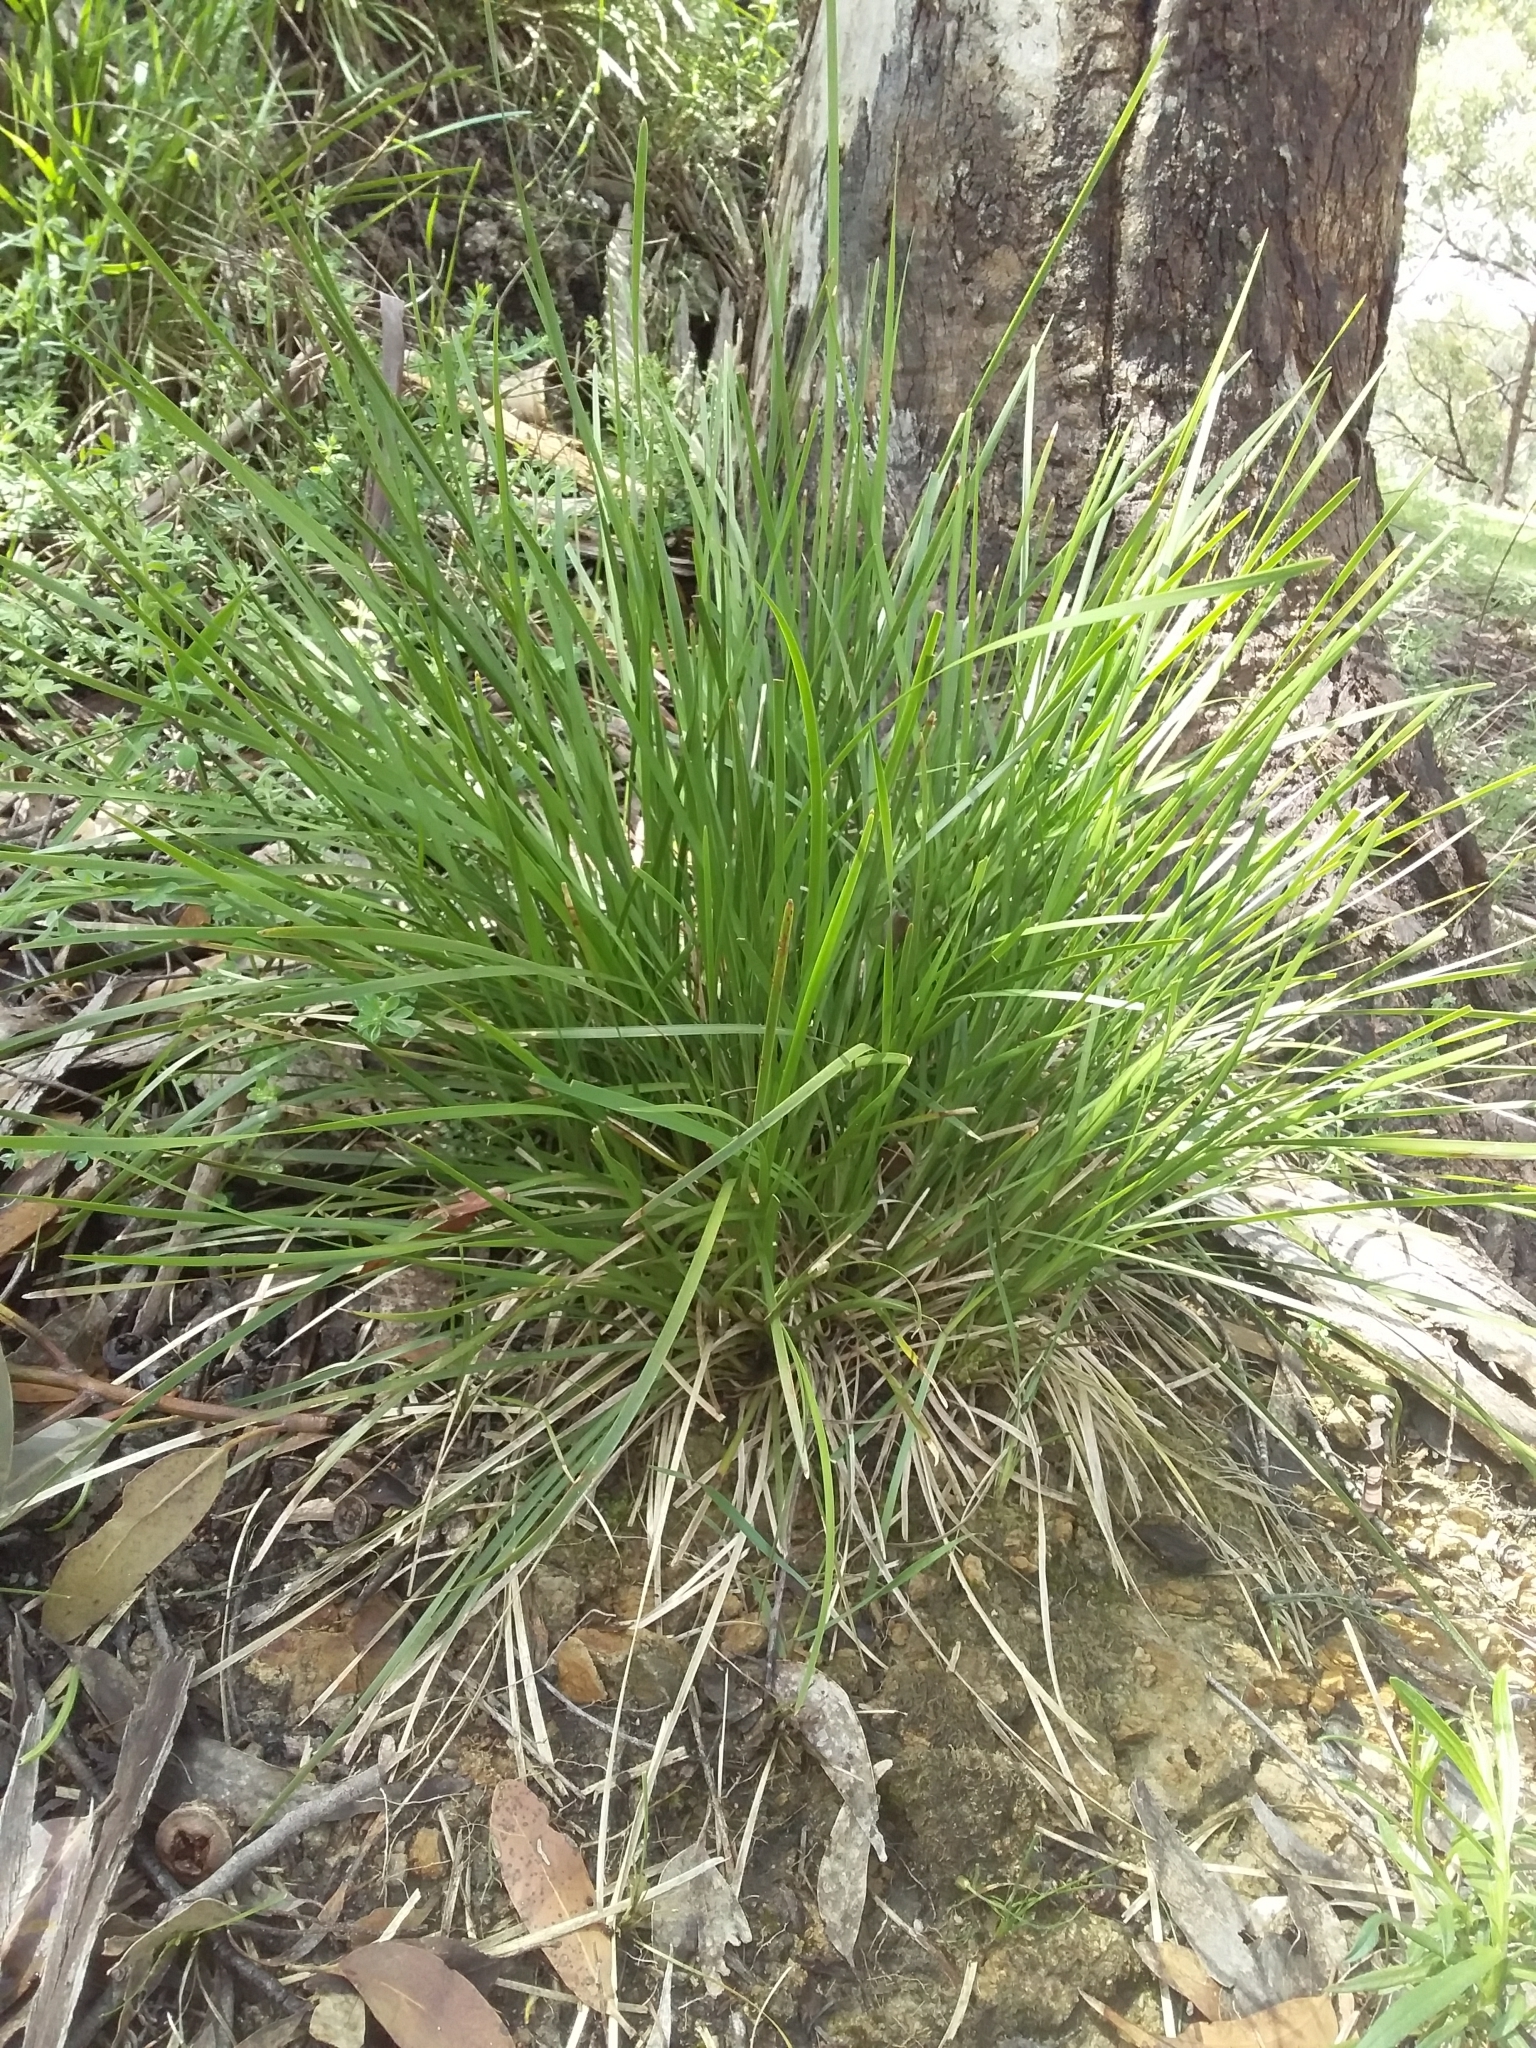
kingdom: Plantae
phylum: Tracheophyta
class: Liliopsida
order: Asparagales
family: Asparagaceae
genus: Lomandra
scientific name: Lomandra densiflora
